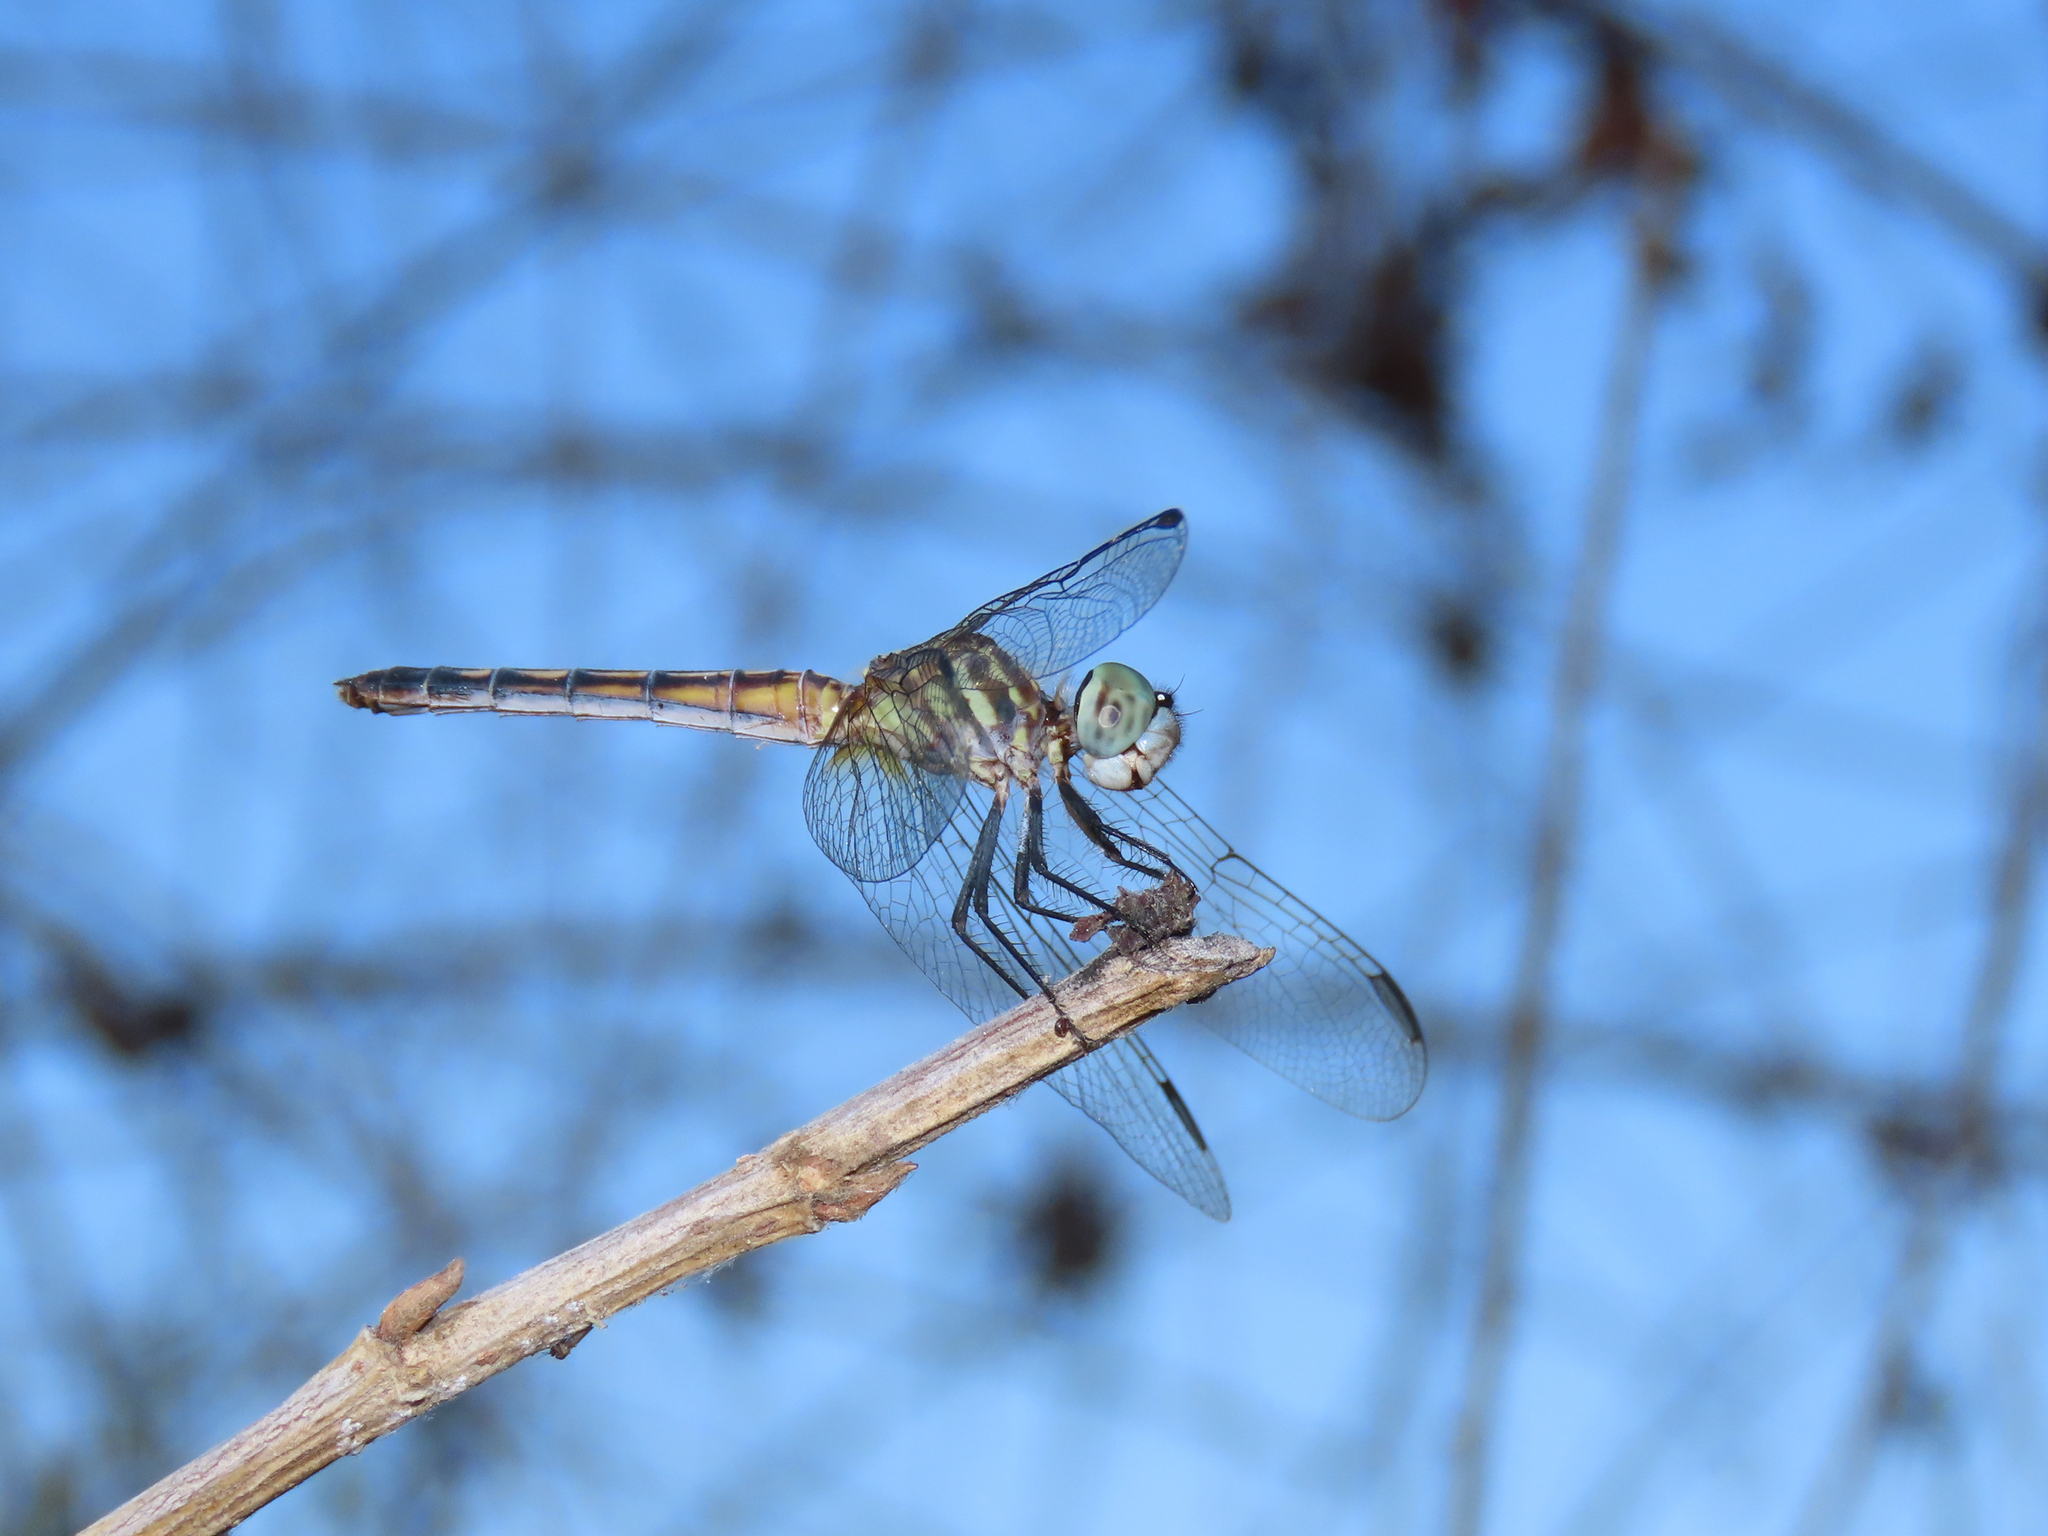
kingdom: Animalia
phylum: Arthropoda
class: Insecta
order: Odonata
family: Libellulidae
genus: Pachydiplax
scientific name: Pachydiplax longipennis
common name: Blue dasher
